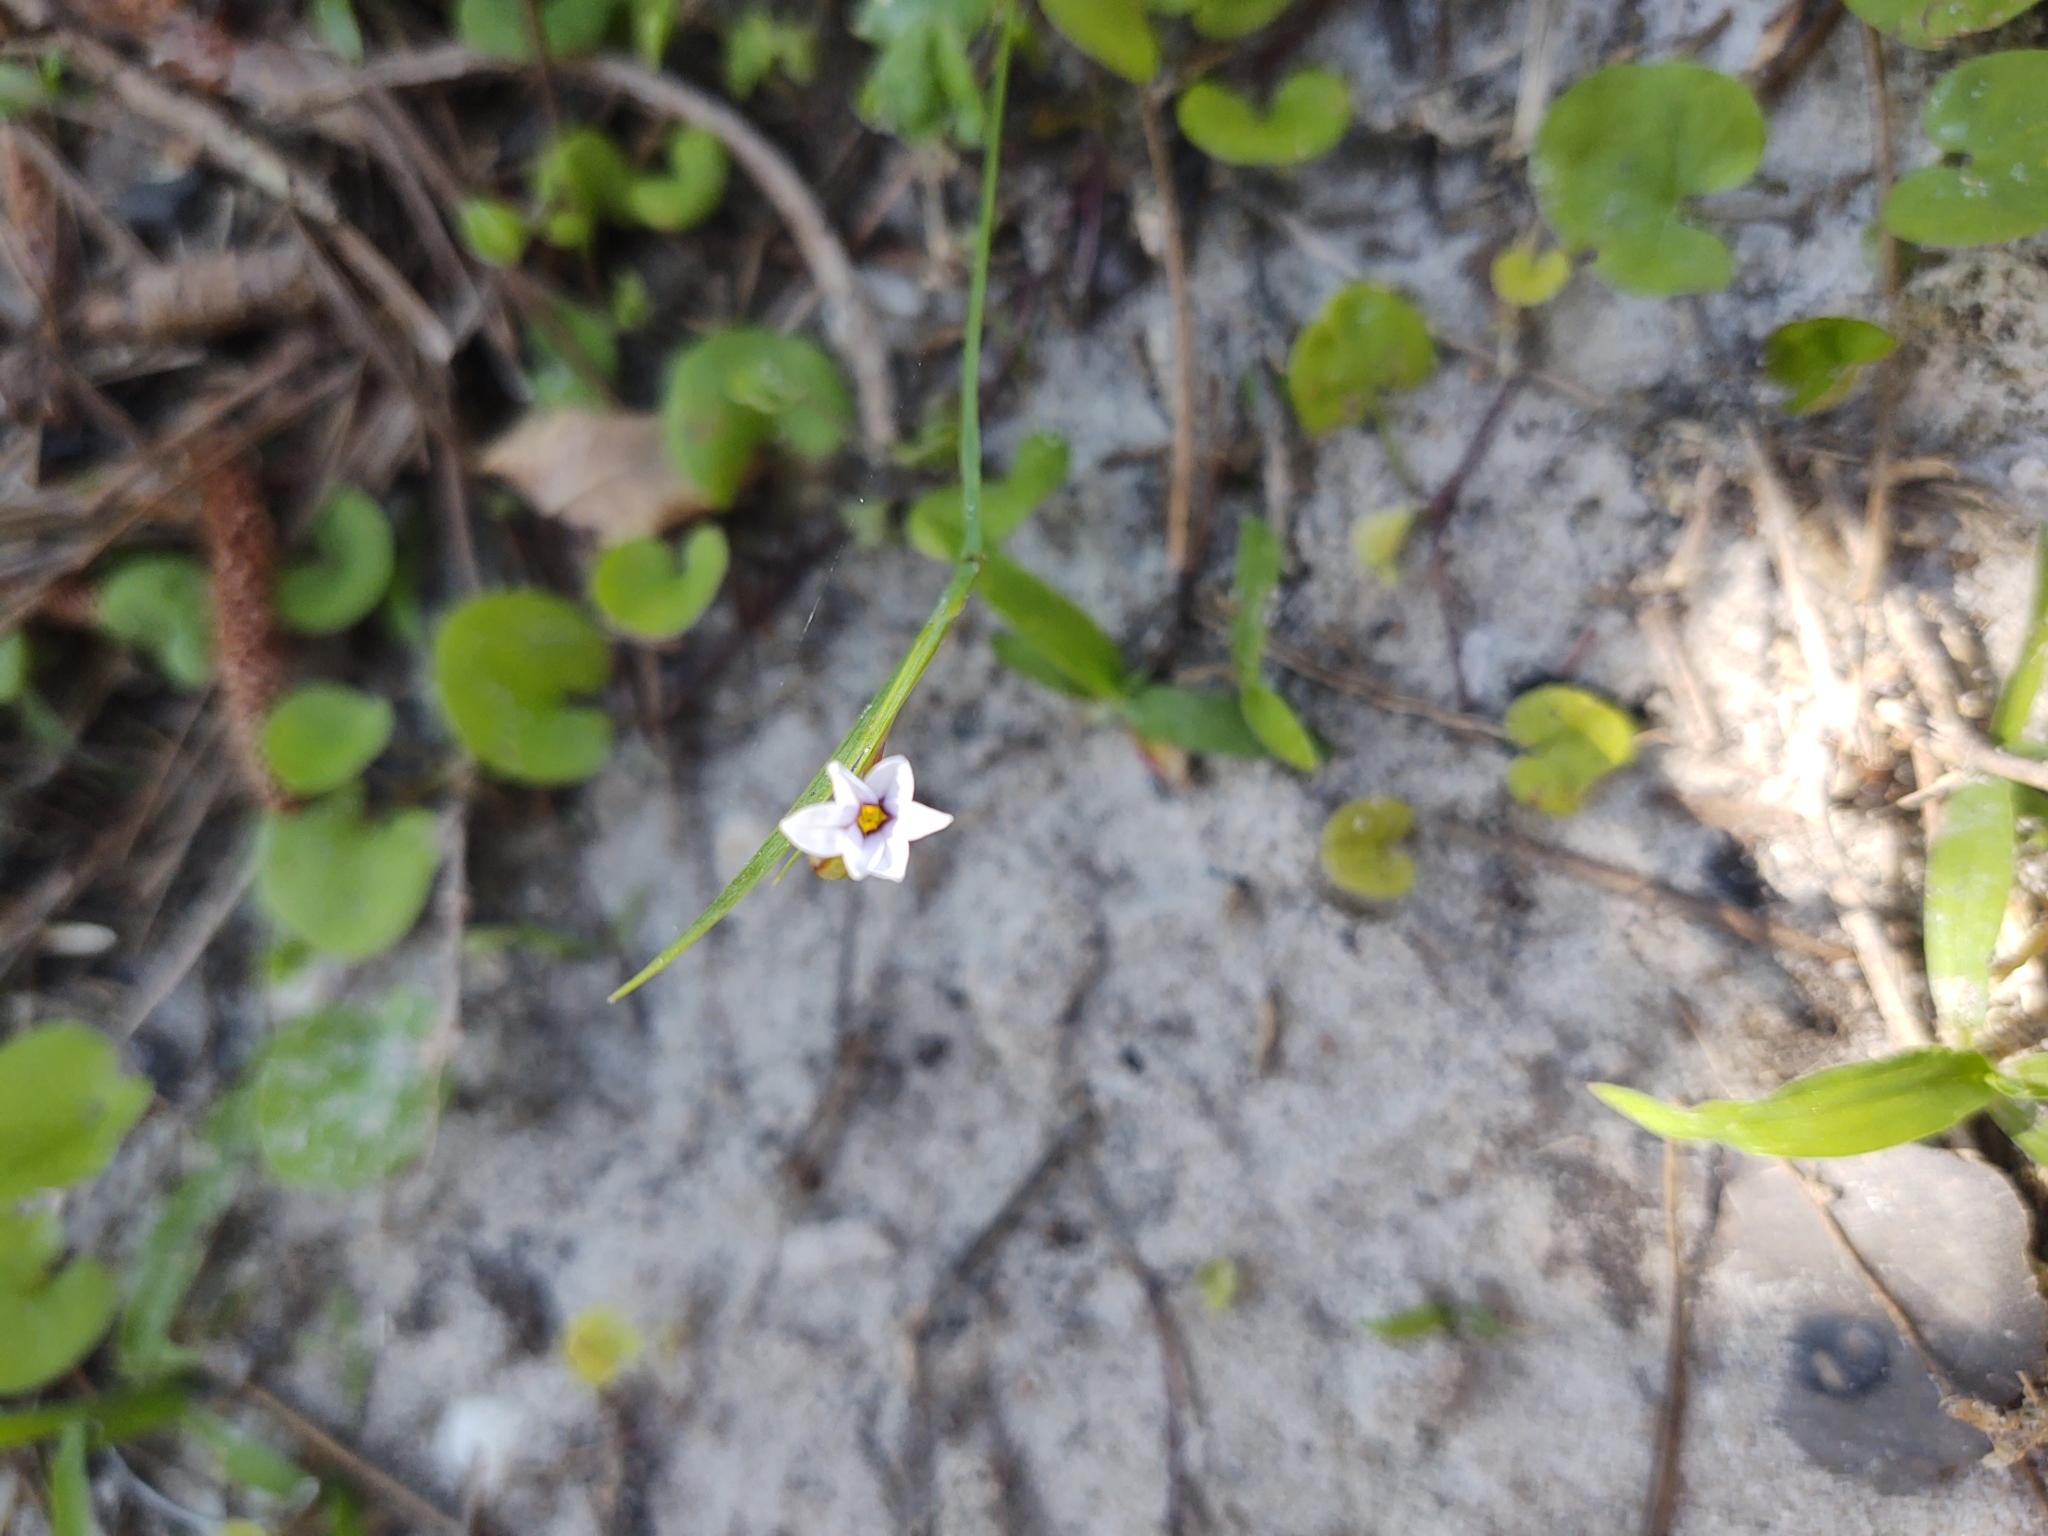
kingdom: Plantae
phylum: Tracheophyta
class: Liliopsida
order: Asparagales
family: Iridaceae
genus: Sisyrinchium
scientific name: Sisyrinchium micranthum
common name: Bermuda pigroot
